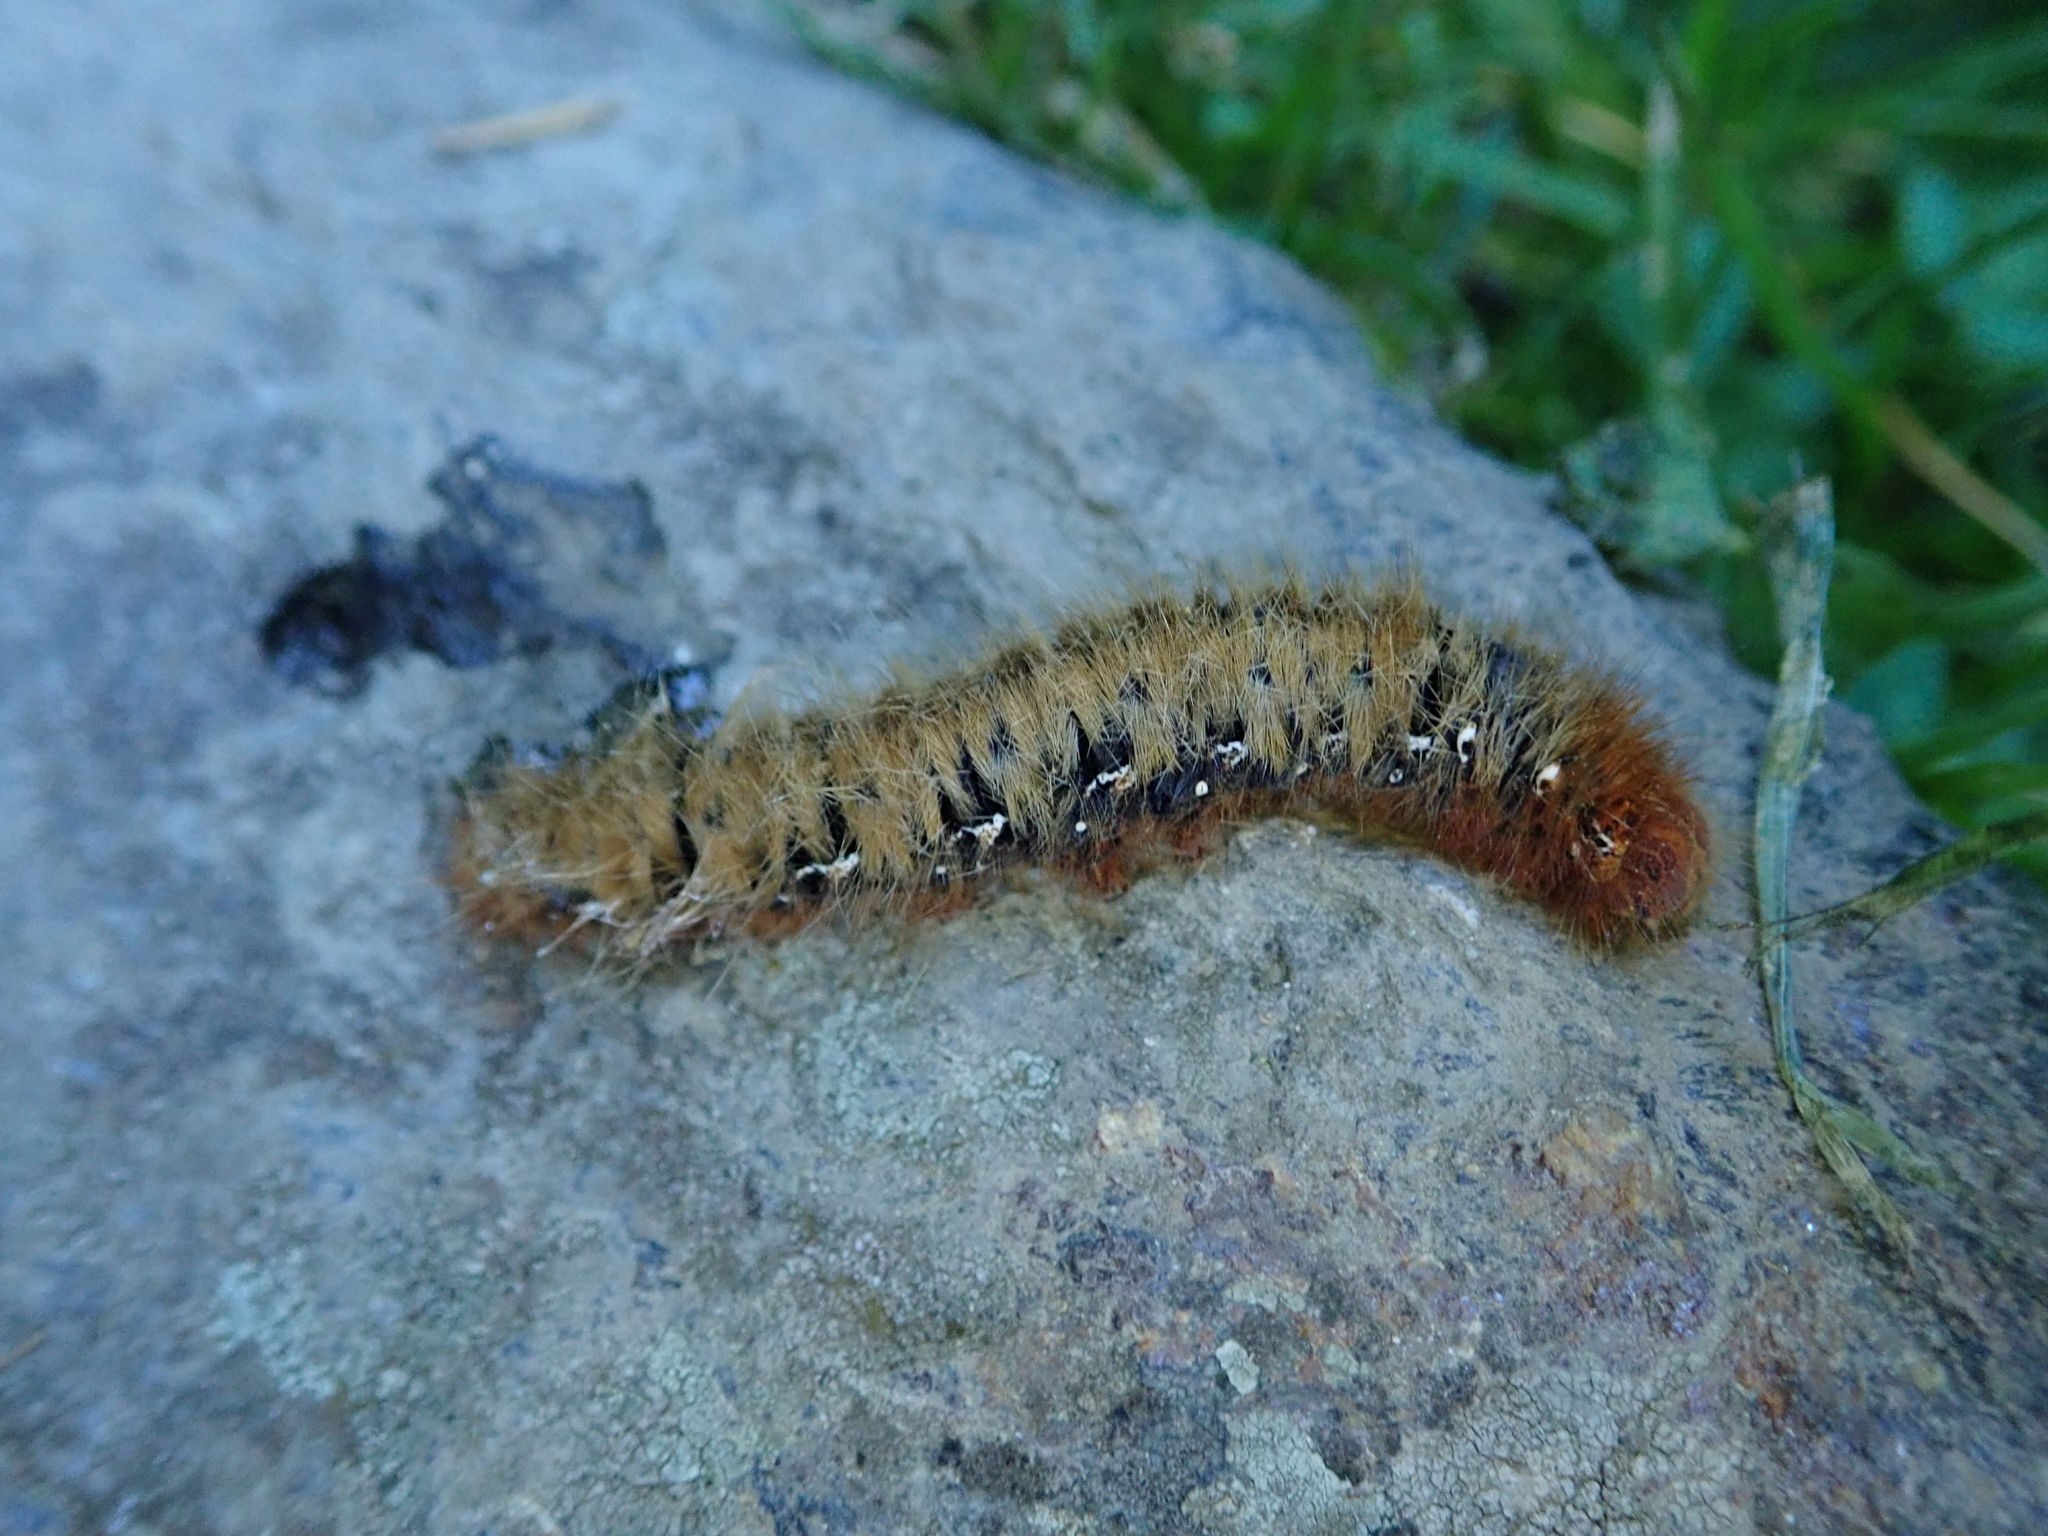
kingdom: Animalia
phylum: Arthropoda
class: Insecta
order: Lepidoptera
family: Lasiocampidae
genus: Lasiocampa
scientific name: Lasiocampa quercus
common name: Oak eggar
